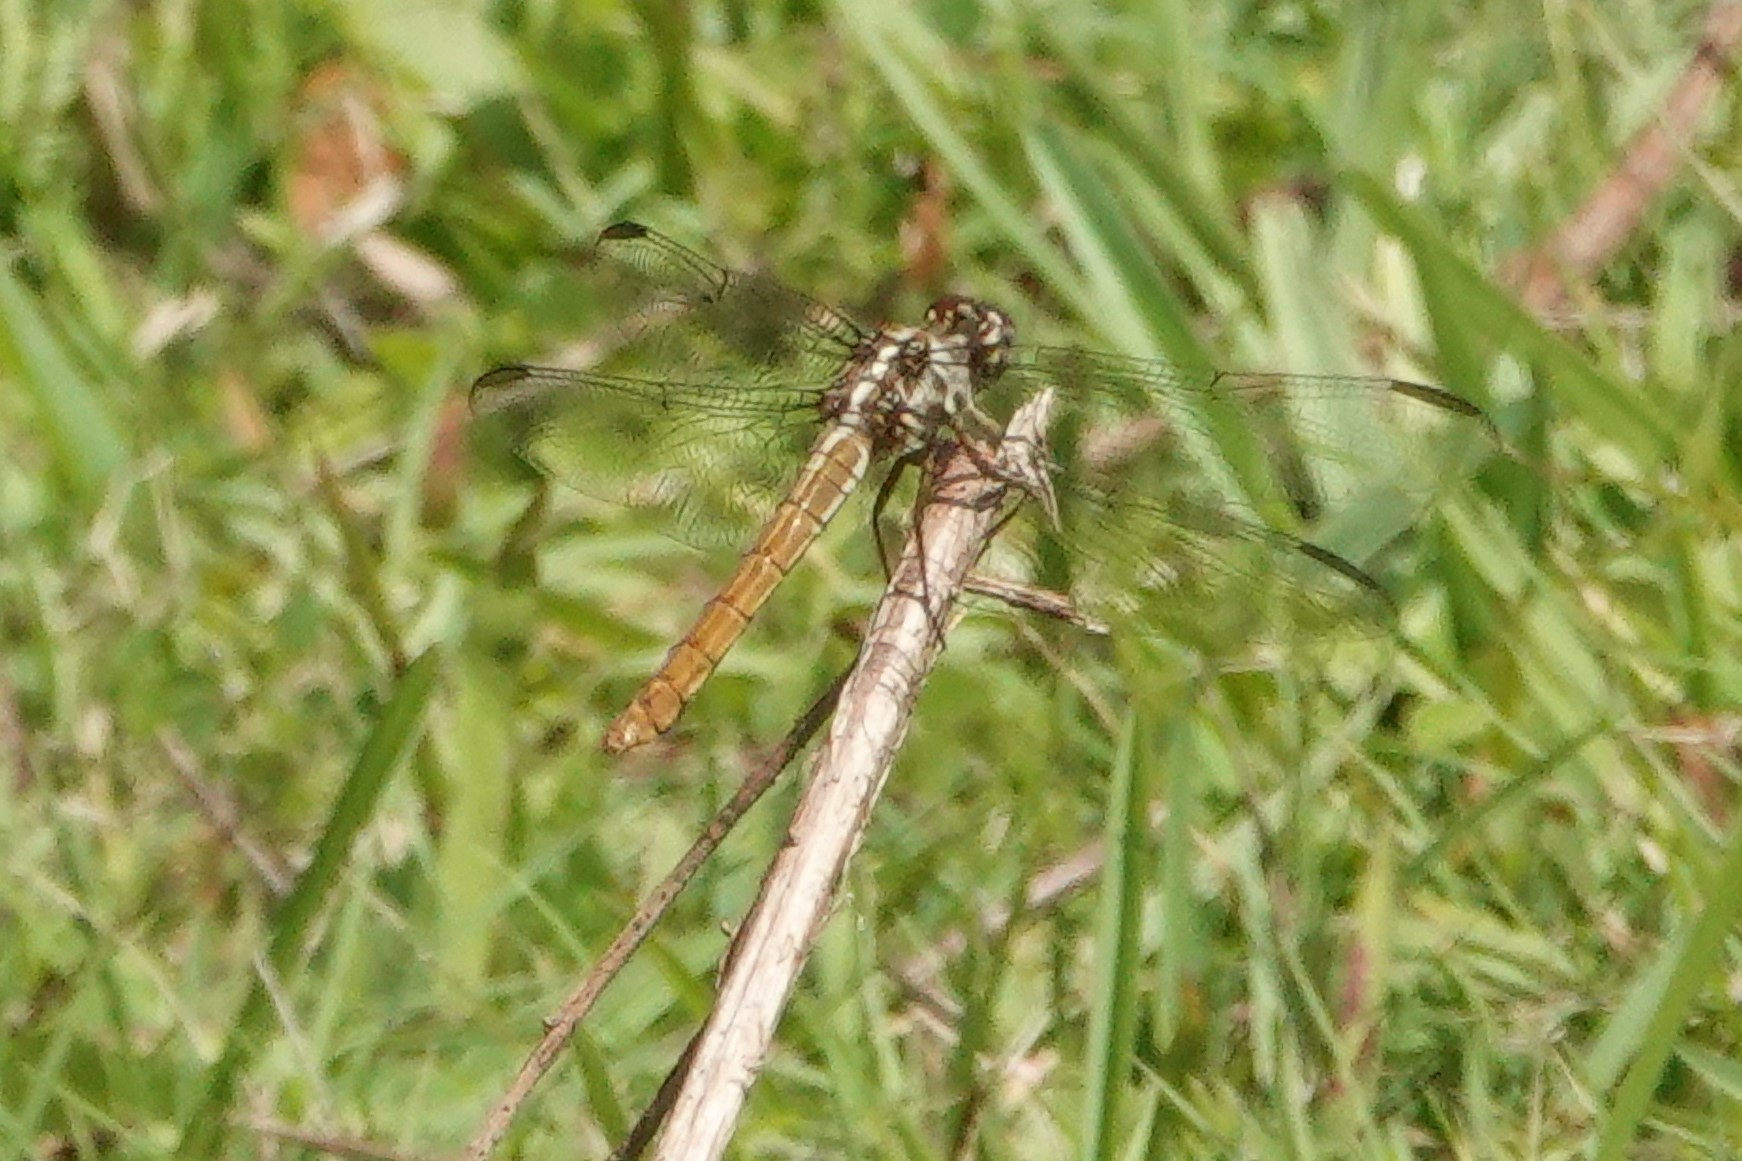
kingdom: Animalia
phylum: Arthropoda
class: Insecta
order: Odonata
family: Libellulidae
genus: Orthemis
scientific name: Orthemis ferruginea
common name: Roseate skimmer
